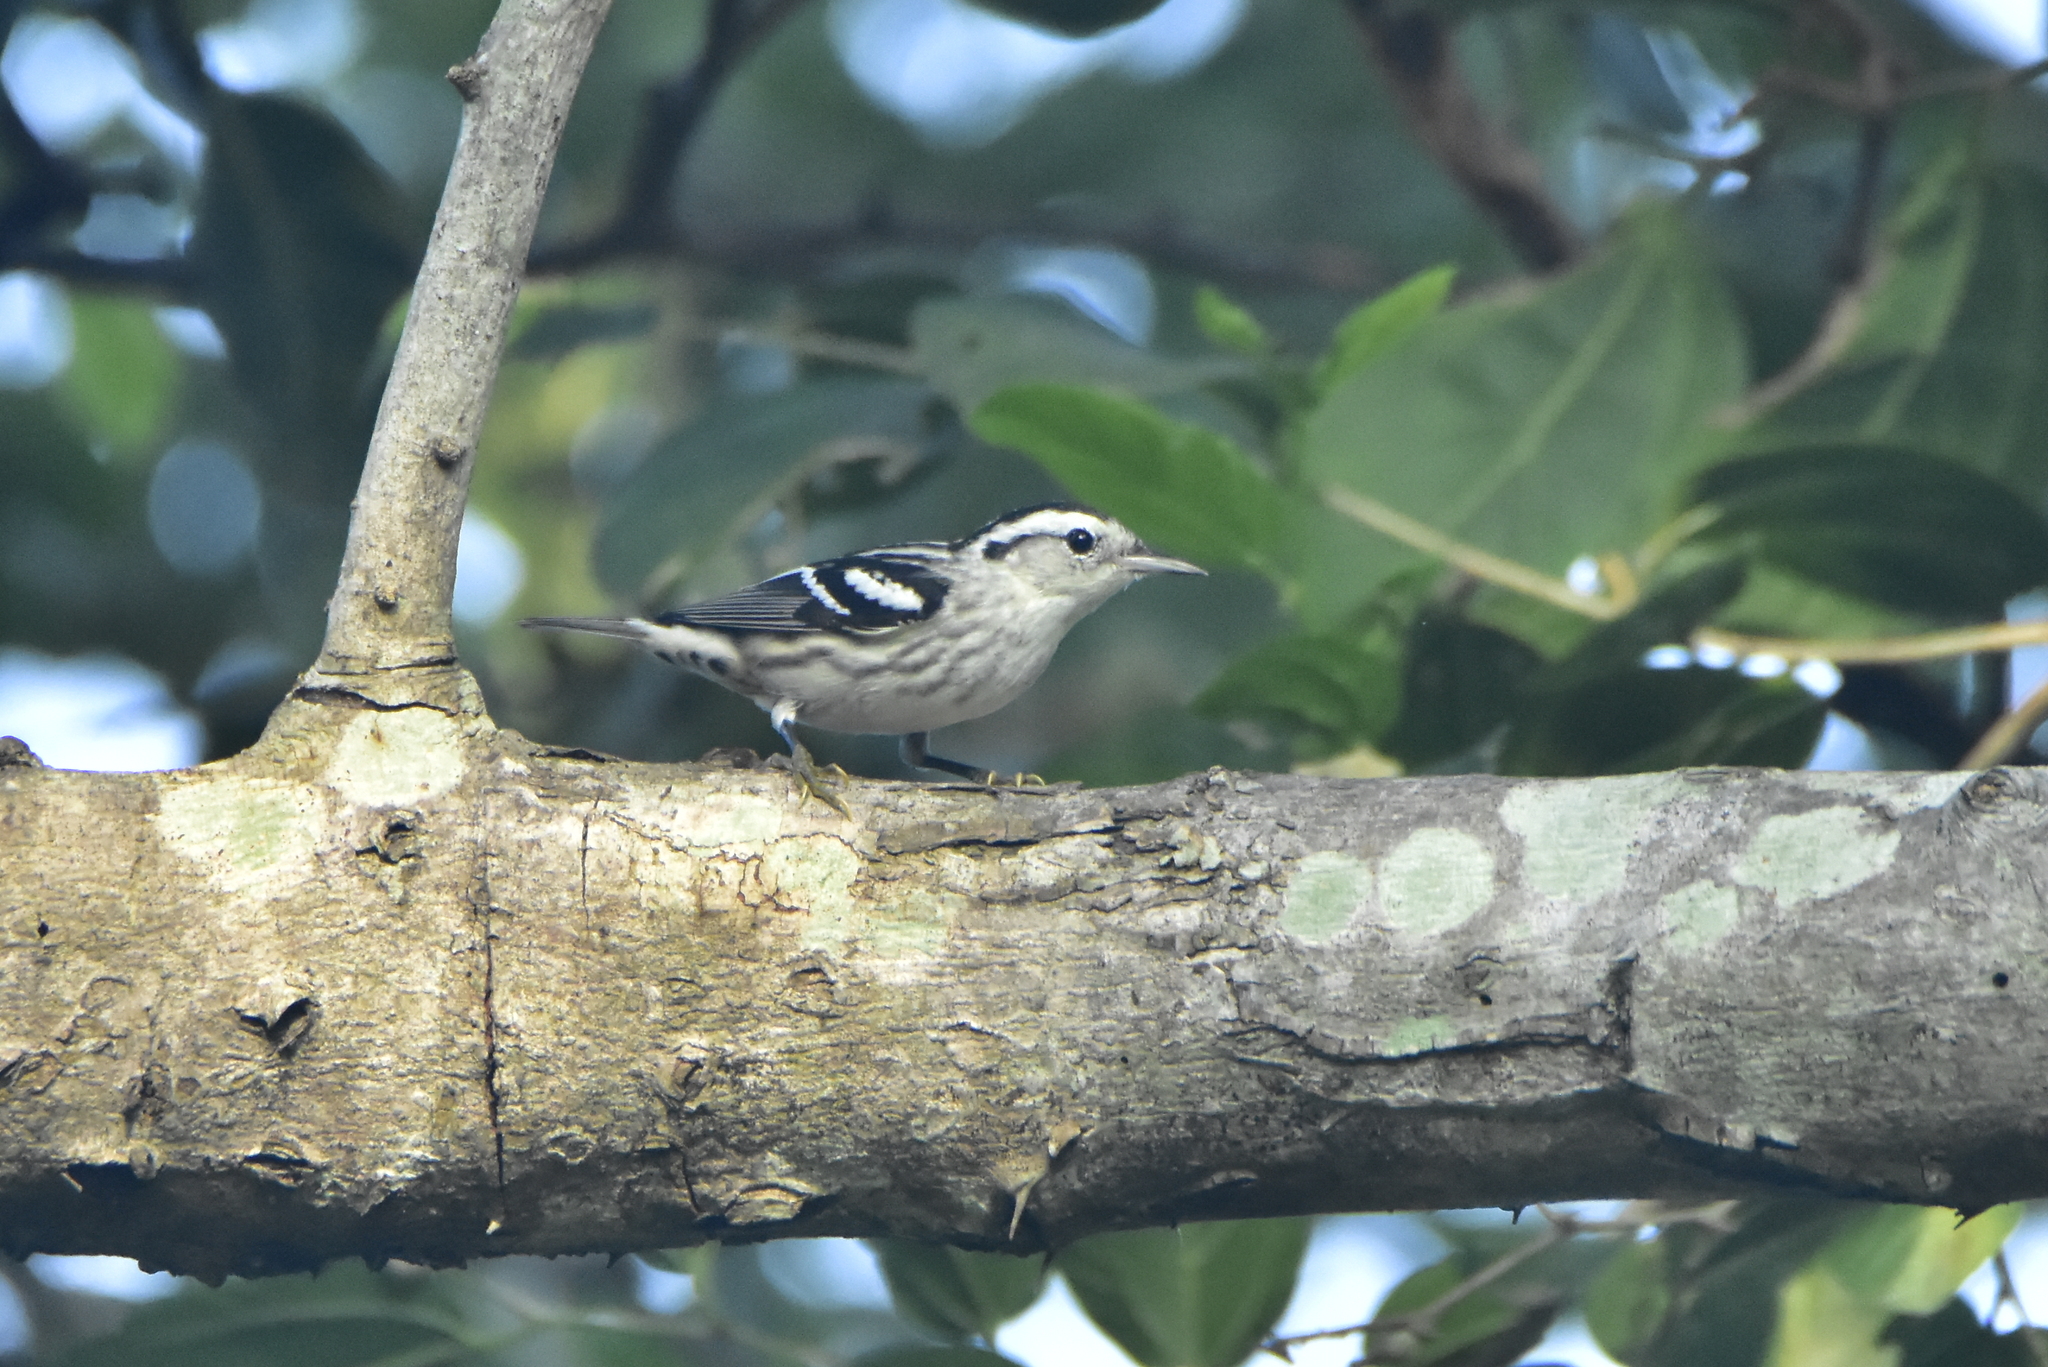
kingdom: Animalia
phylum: Chordata
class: Aves
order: Passeriformes
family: Parulidae
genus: Mniotilta
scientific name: Mniotilta varia
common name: Black-and-white warbler
